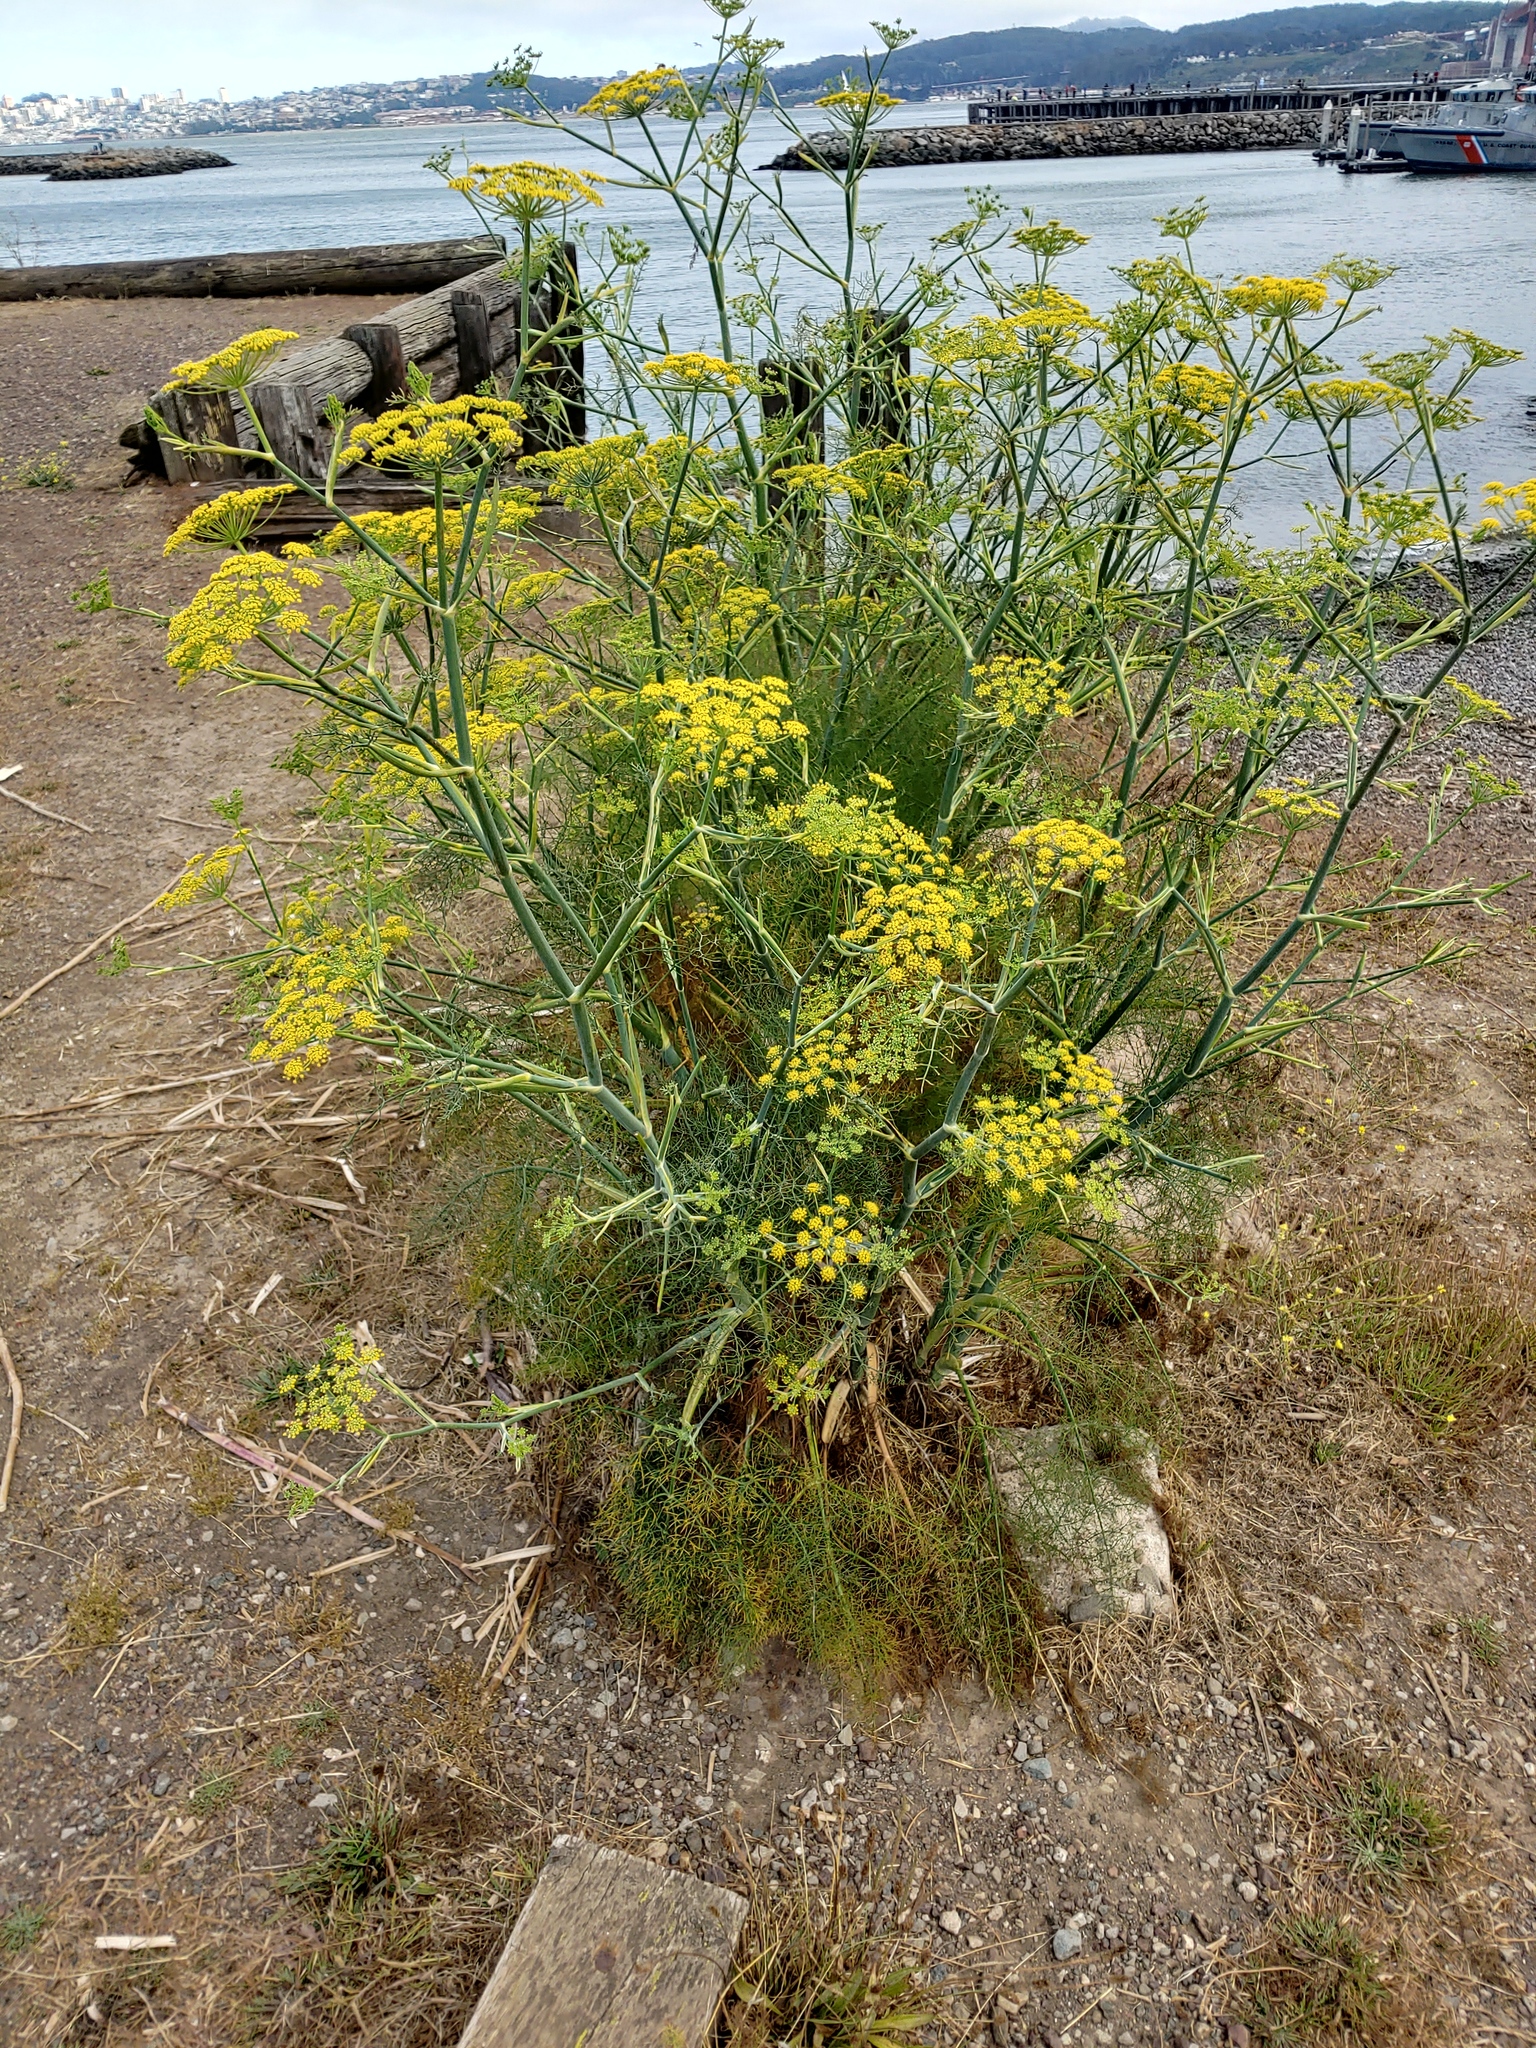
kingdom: Plantae
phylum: Tracheophyta
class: Magnoliopsida
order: Apiales
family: Apiaceae
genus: Foeniculum
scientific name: Foeniculum vulgare
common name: Fennel
